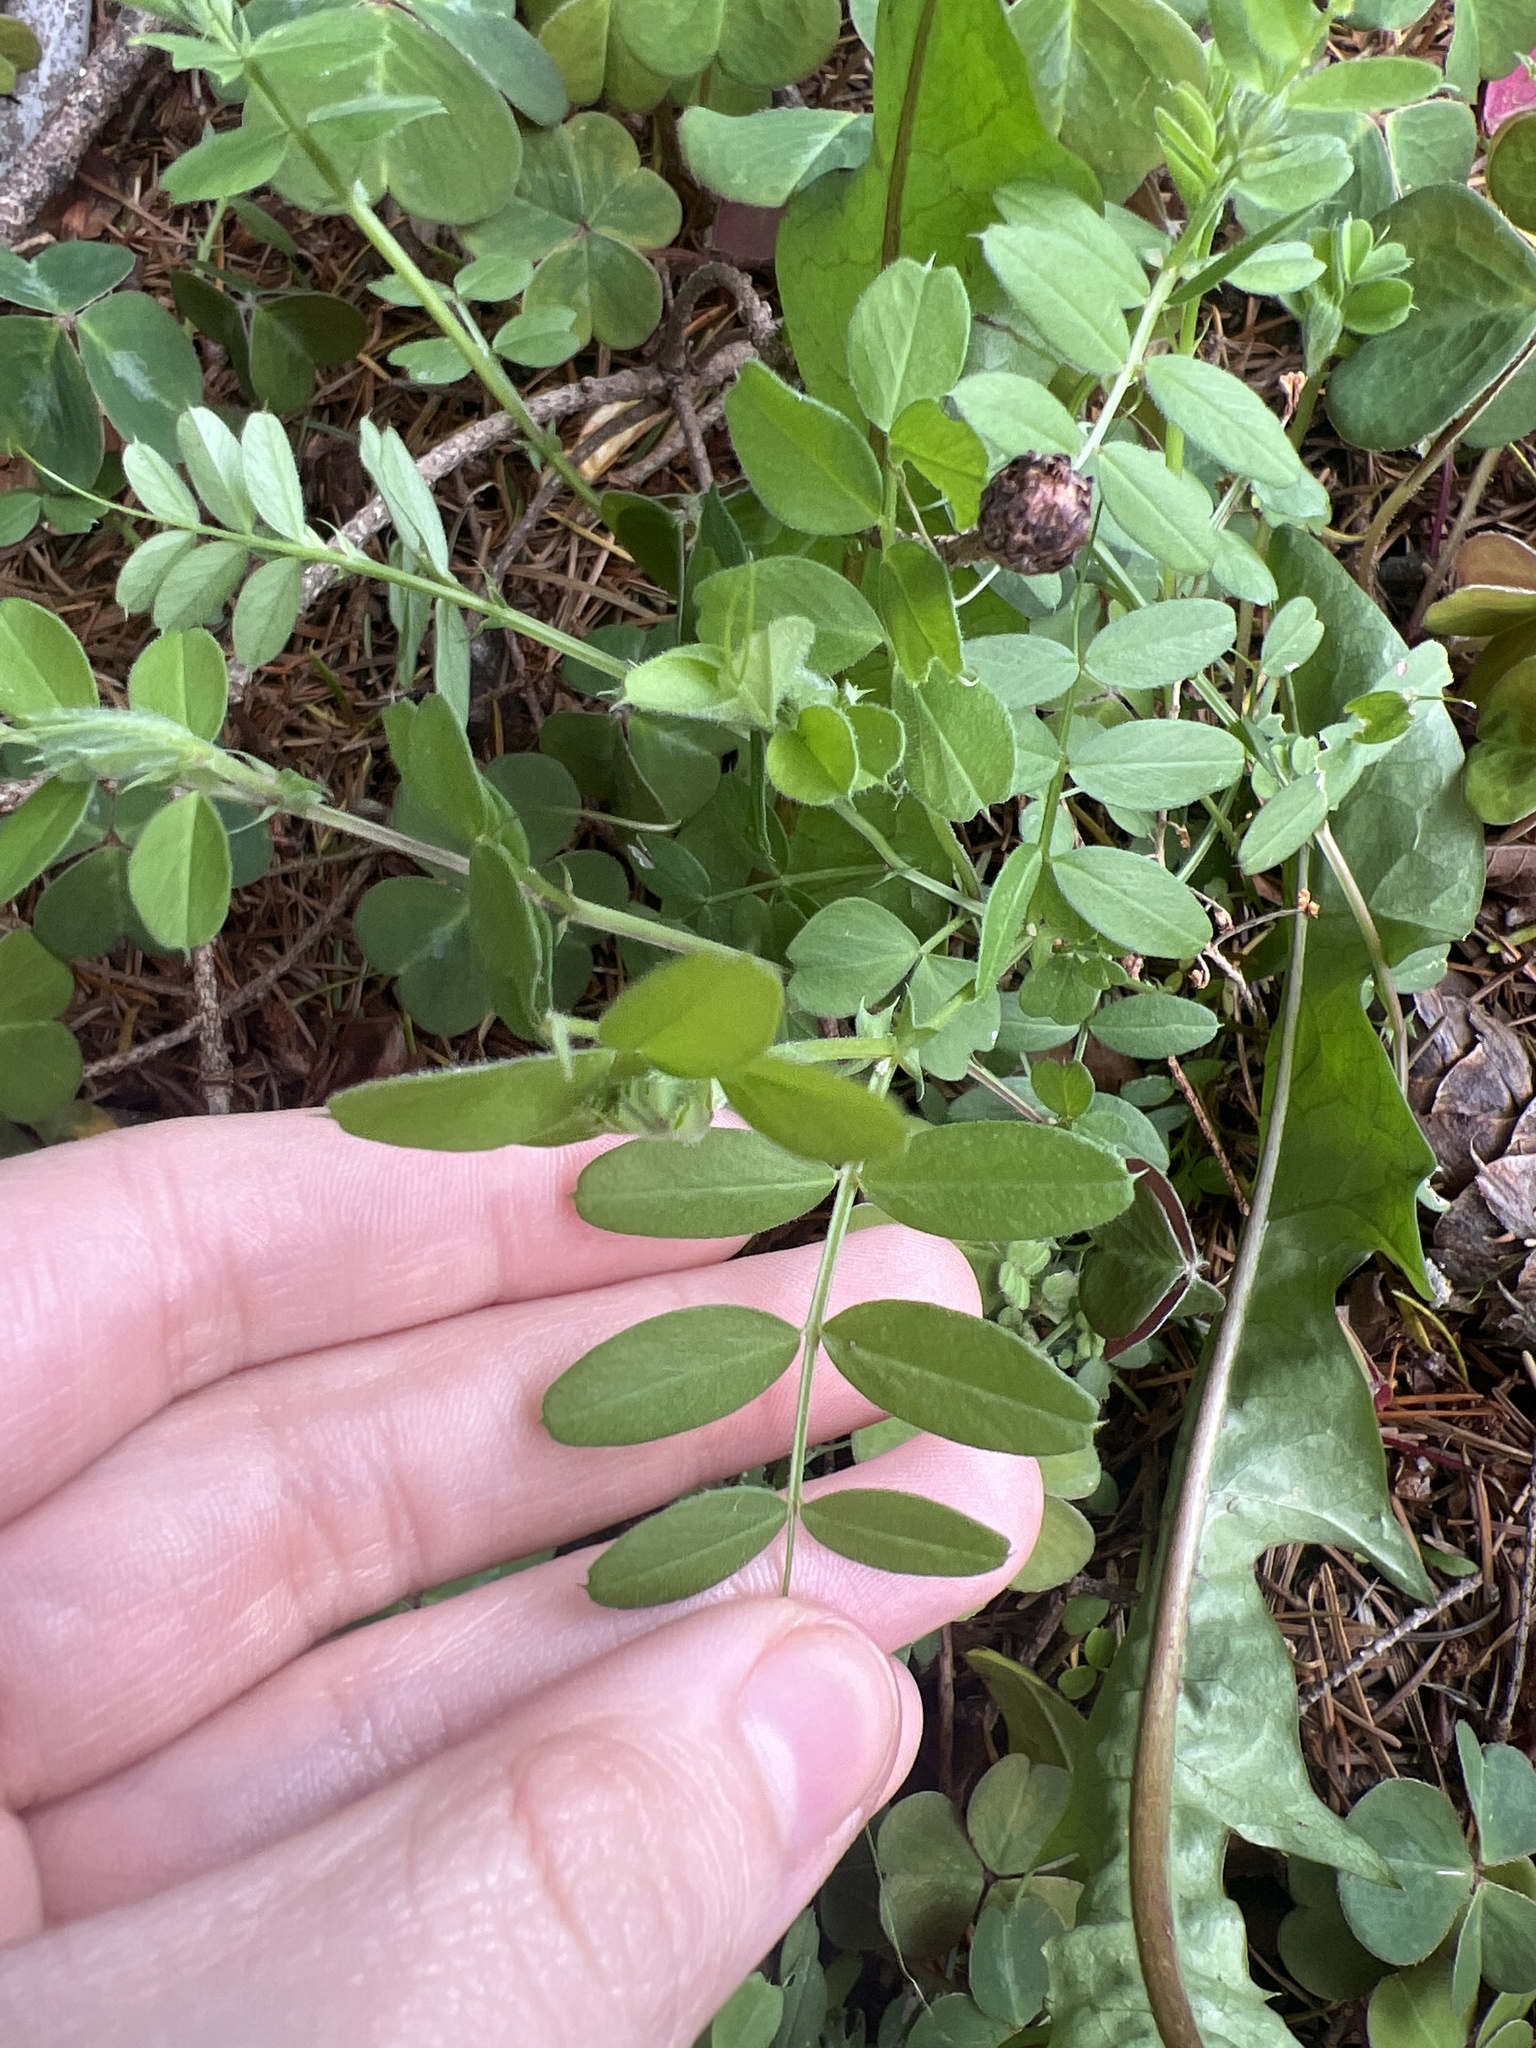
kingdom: Plantae
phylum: Tracheophyta
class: Magnoliopsida
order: Fabales
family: Fabaceae
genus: Vicia
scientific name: Vicia sativa
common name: Garden vetch
